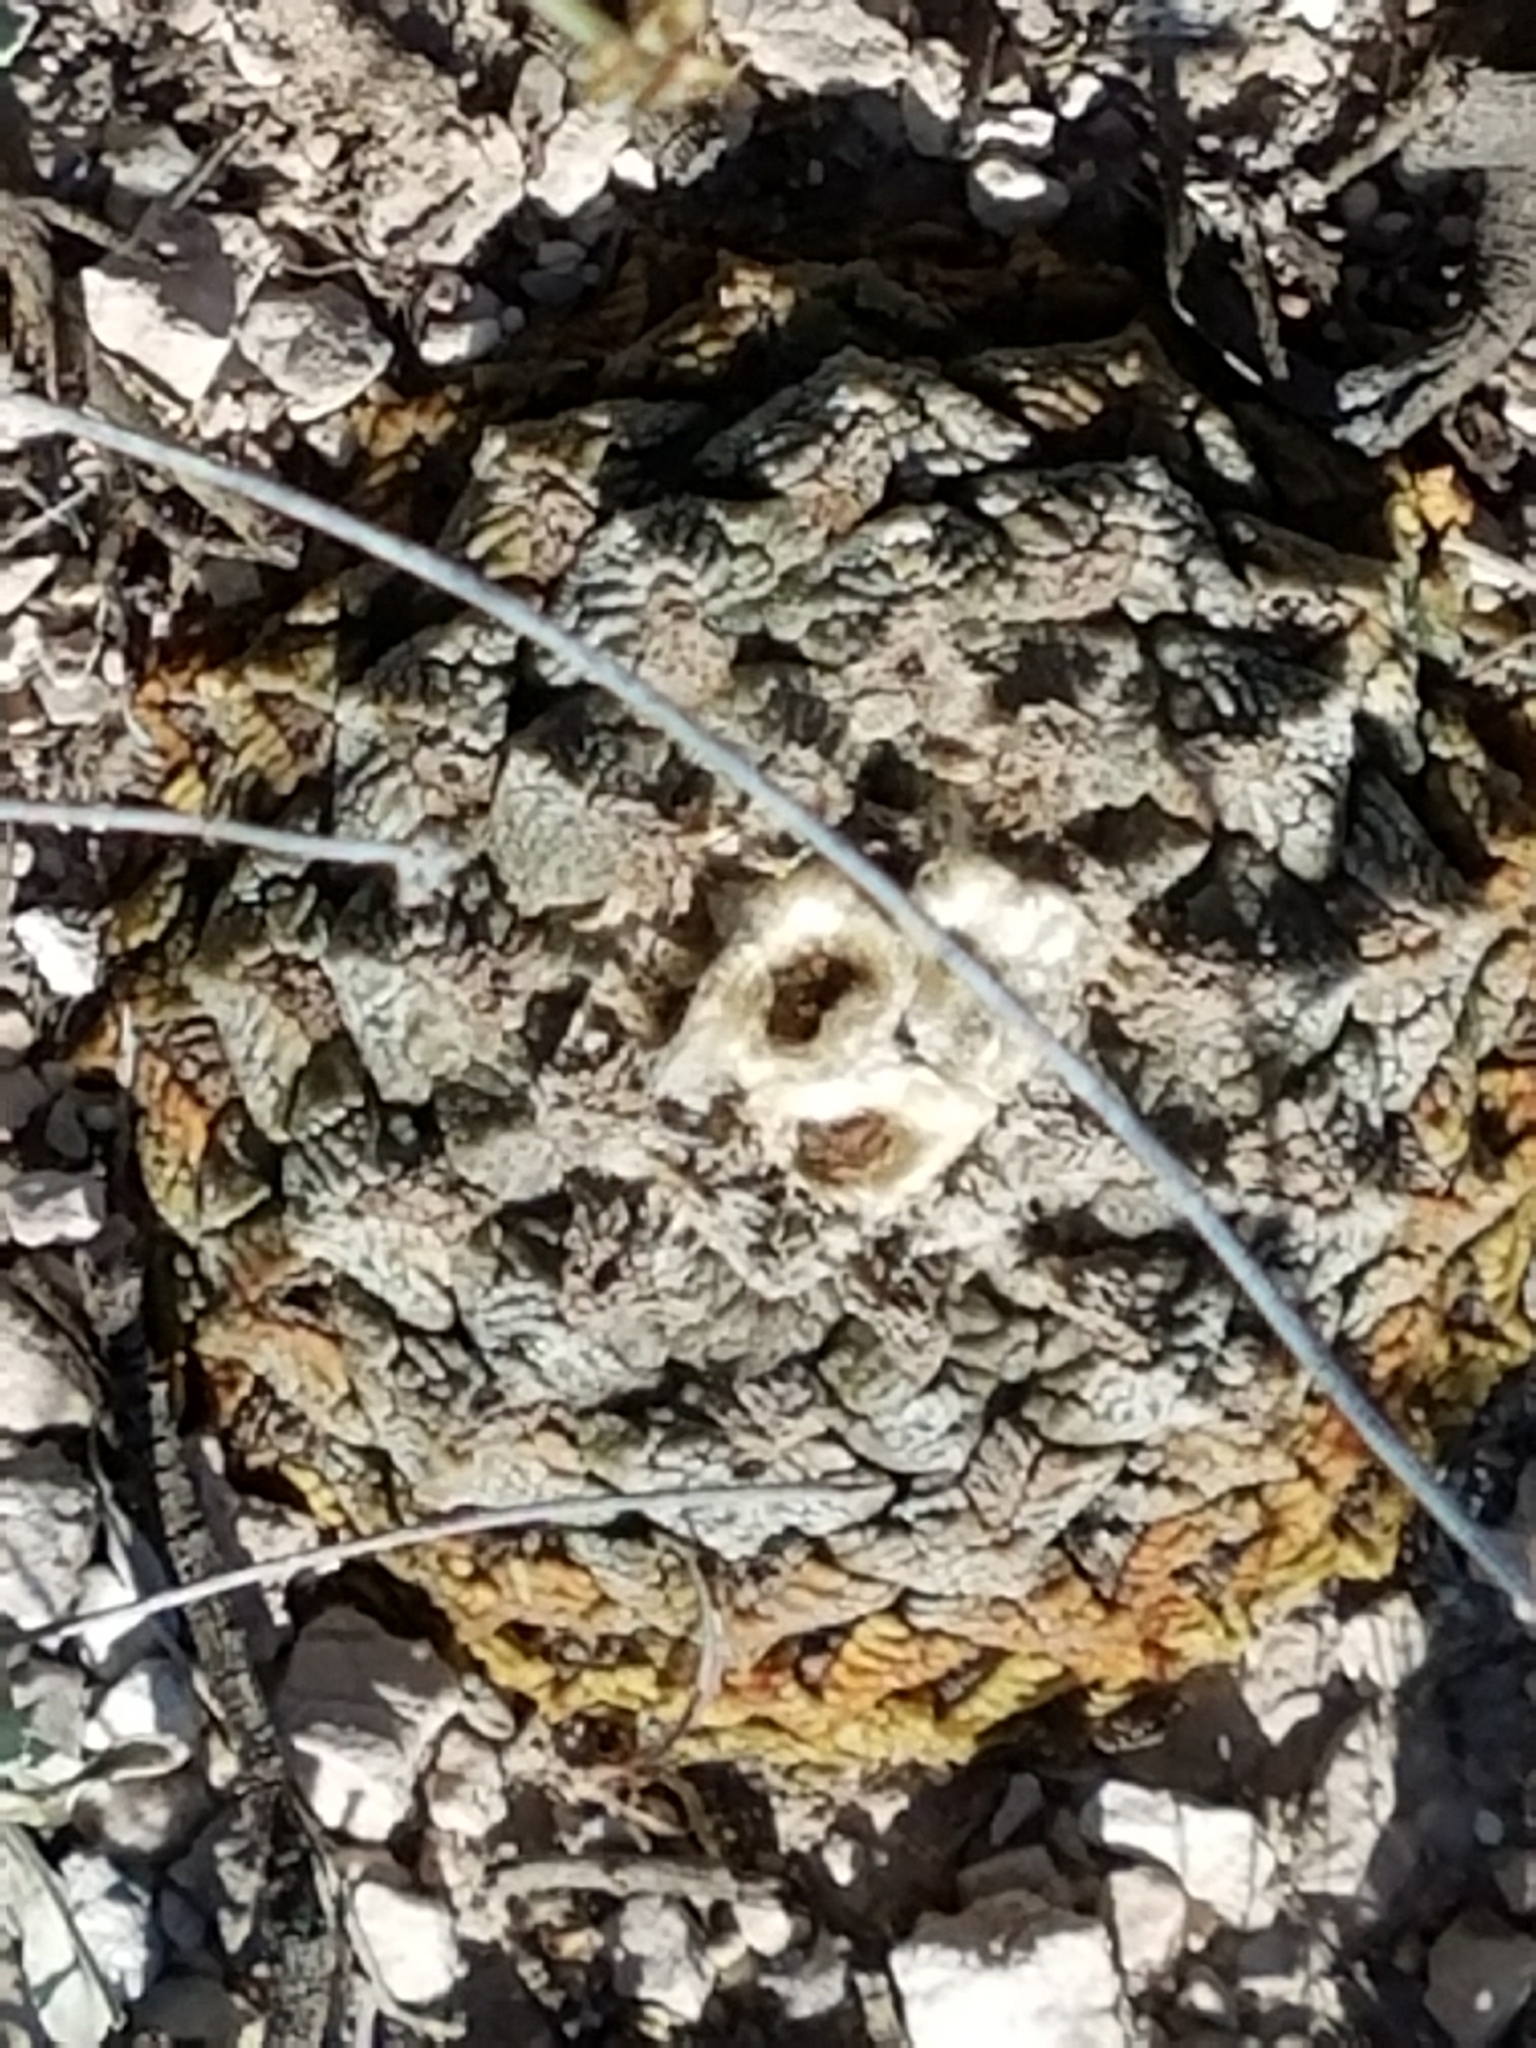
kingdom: Plantae
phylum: Tracheophyta
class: Magnoliopsida
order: Caryophyllales
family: Cactaceae
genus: Ariocarpus
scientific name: Ariocarpus fissuratus
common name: Chautle-living rock
